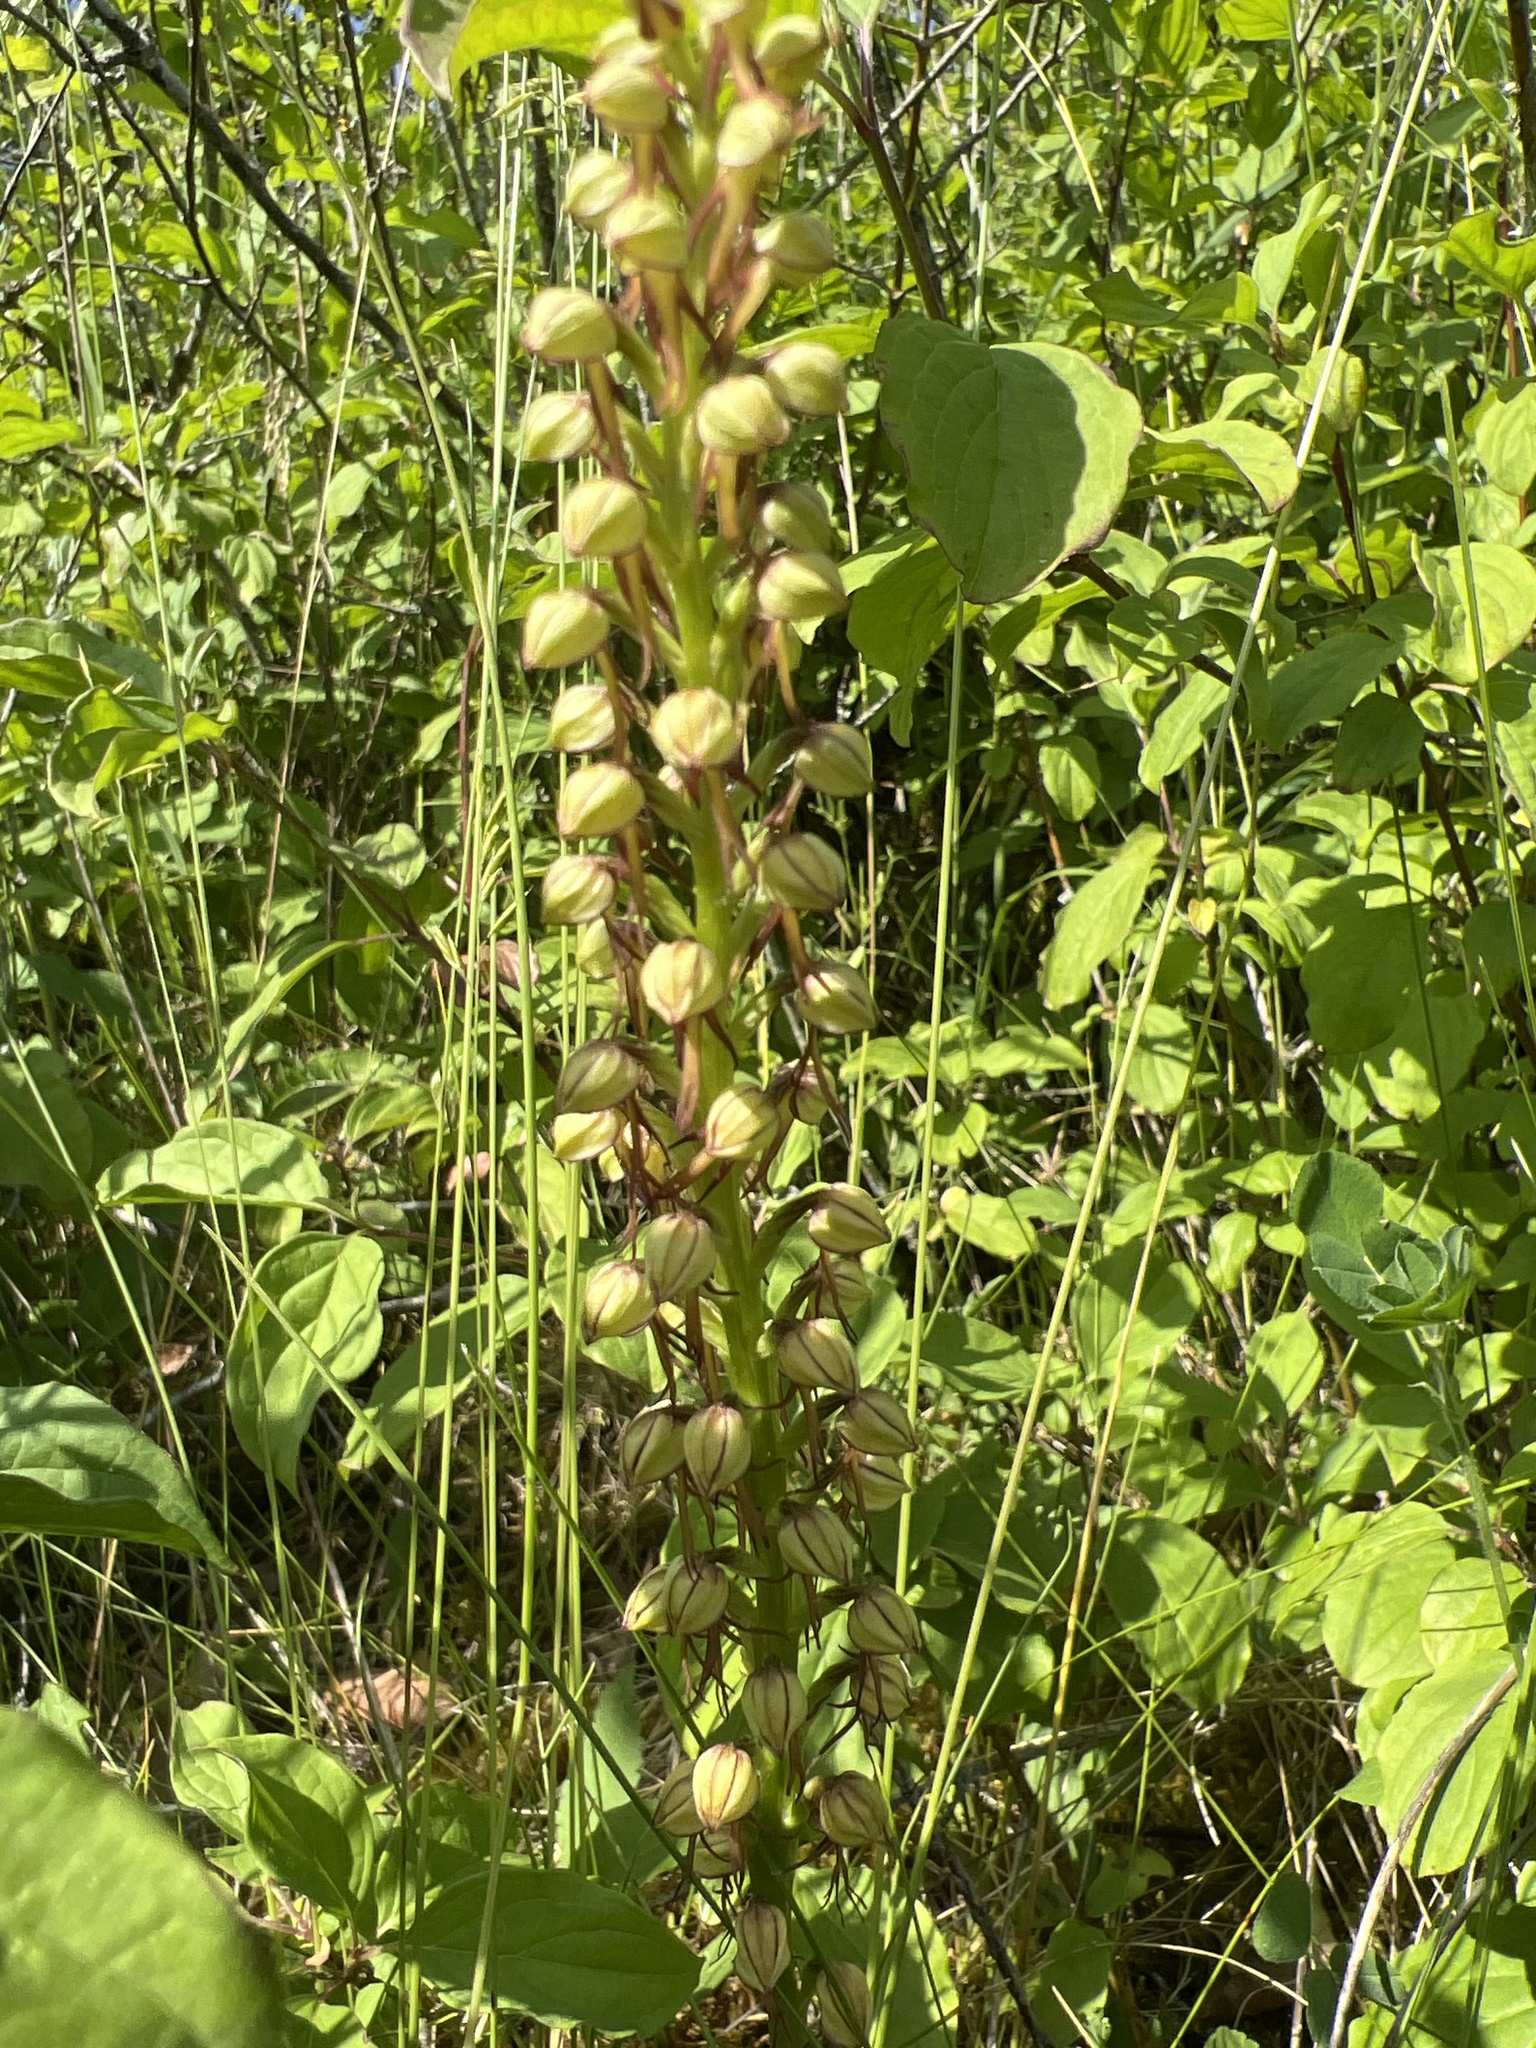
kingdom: Plantae
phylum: Tracheophyta
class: Liliopsida
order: Asparagales
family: Orchidaceae
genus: Orchis
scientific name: Orchis anthropophora
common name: Man orchid
